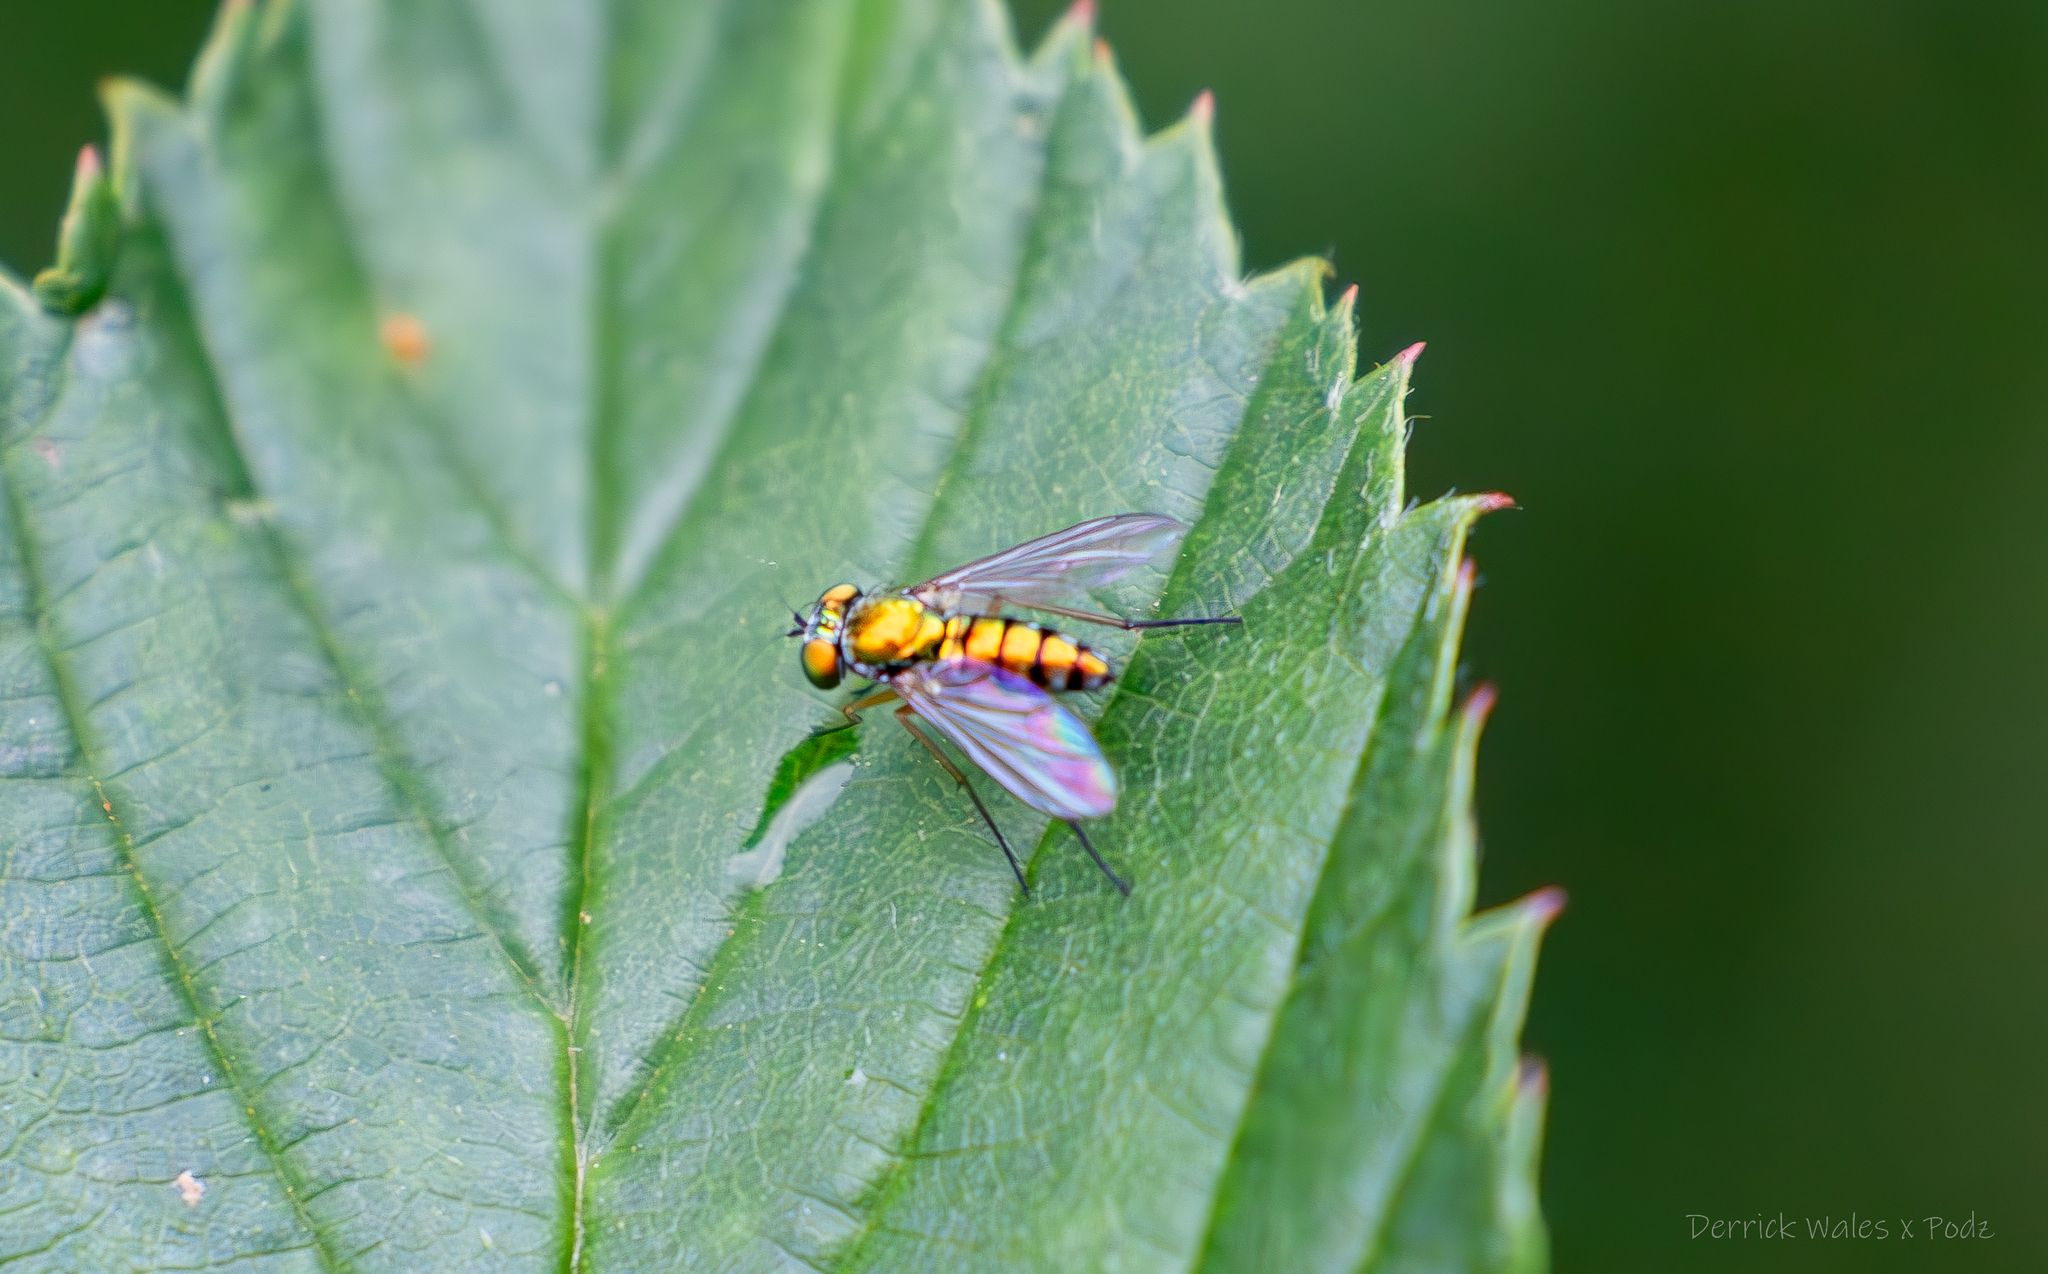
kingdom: Animalia
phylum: Arthropoda
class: Insecta
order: Diptera
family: Dolichopodidae
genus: Condylostylus
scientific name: Condylostylus
